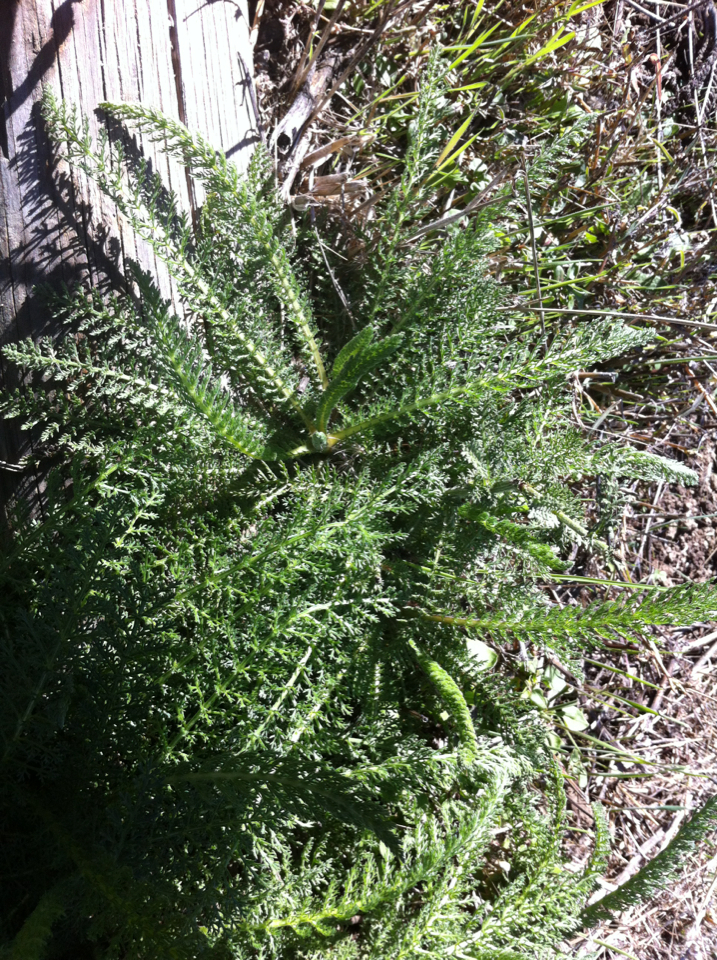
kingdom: Plantae
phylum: Tracheophyta
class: Magnoliopsida
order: Asterales
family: Asteraceae
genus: Achillea
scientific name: Achillea millefolium
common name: Yarrow
